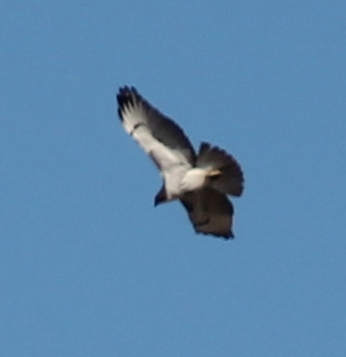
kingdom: Animalia
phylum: Chordata
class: Aves
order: Accipitriformes
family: Accipitridae
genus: Buteo
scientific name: Buteo jamaicensis
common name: Red-tailed hawk
